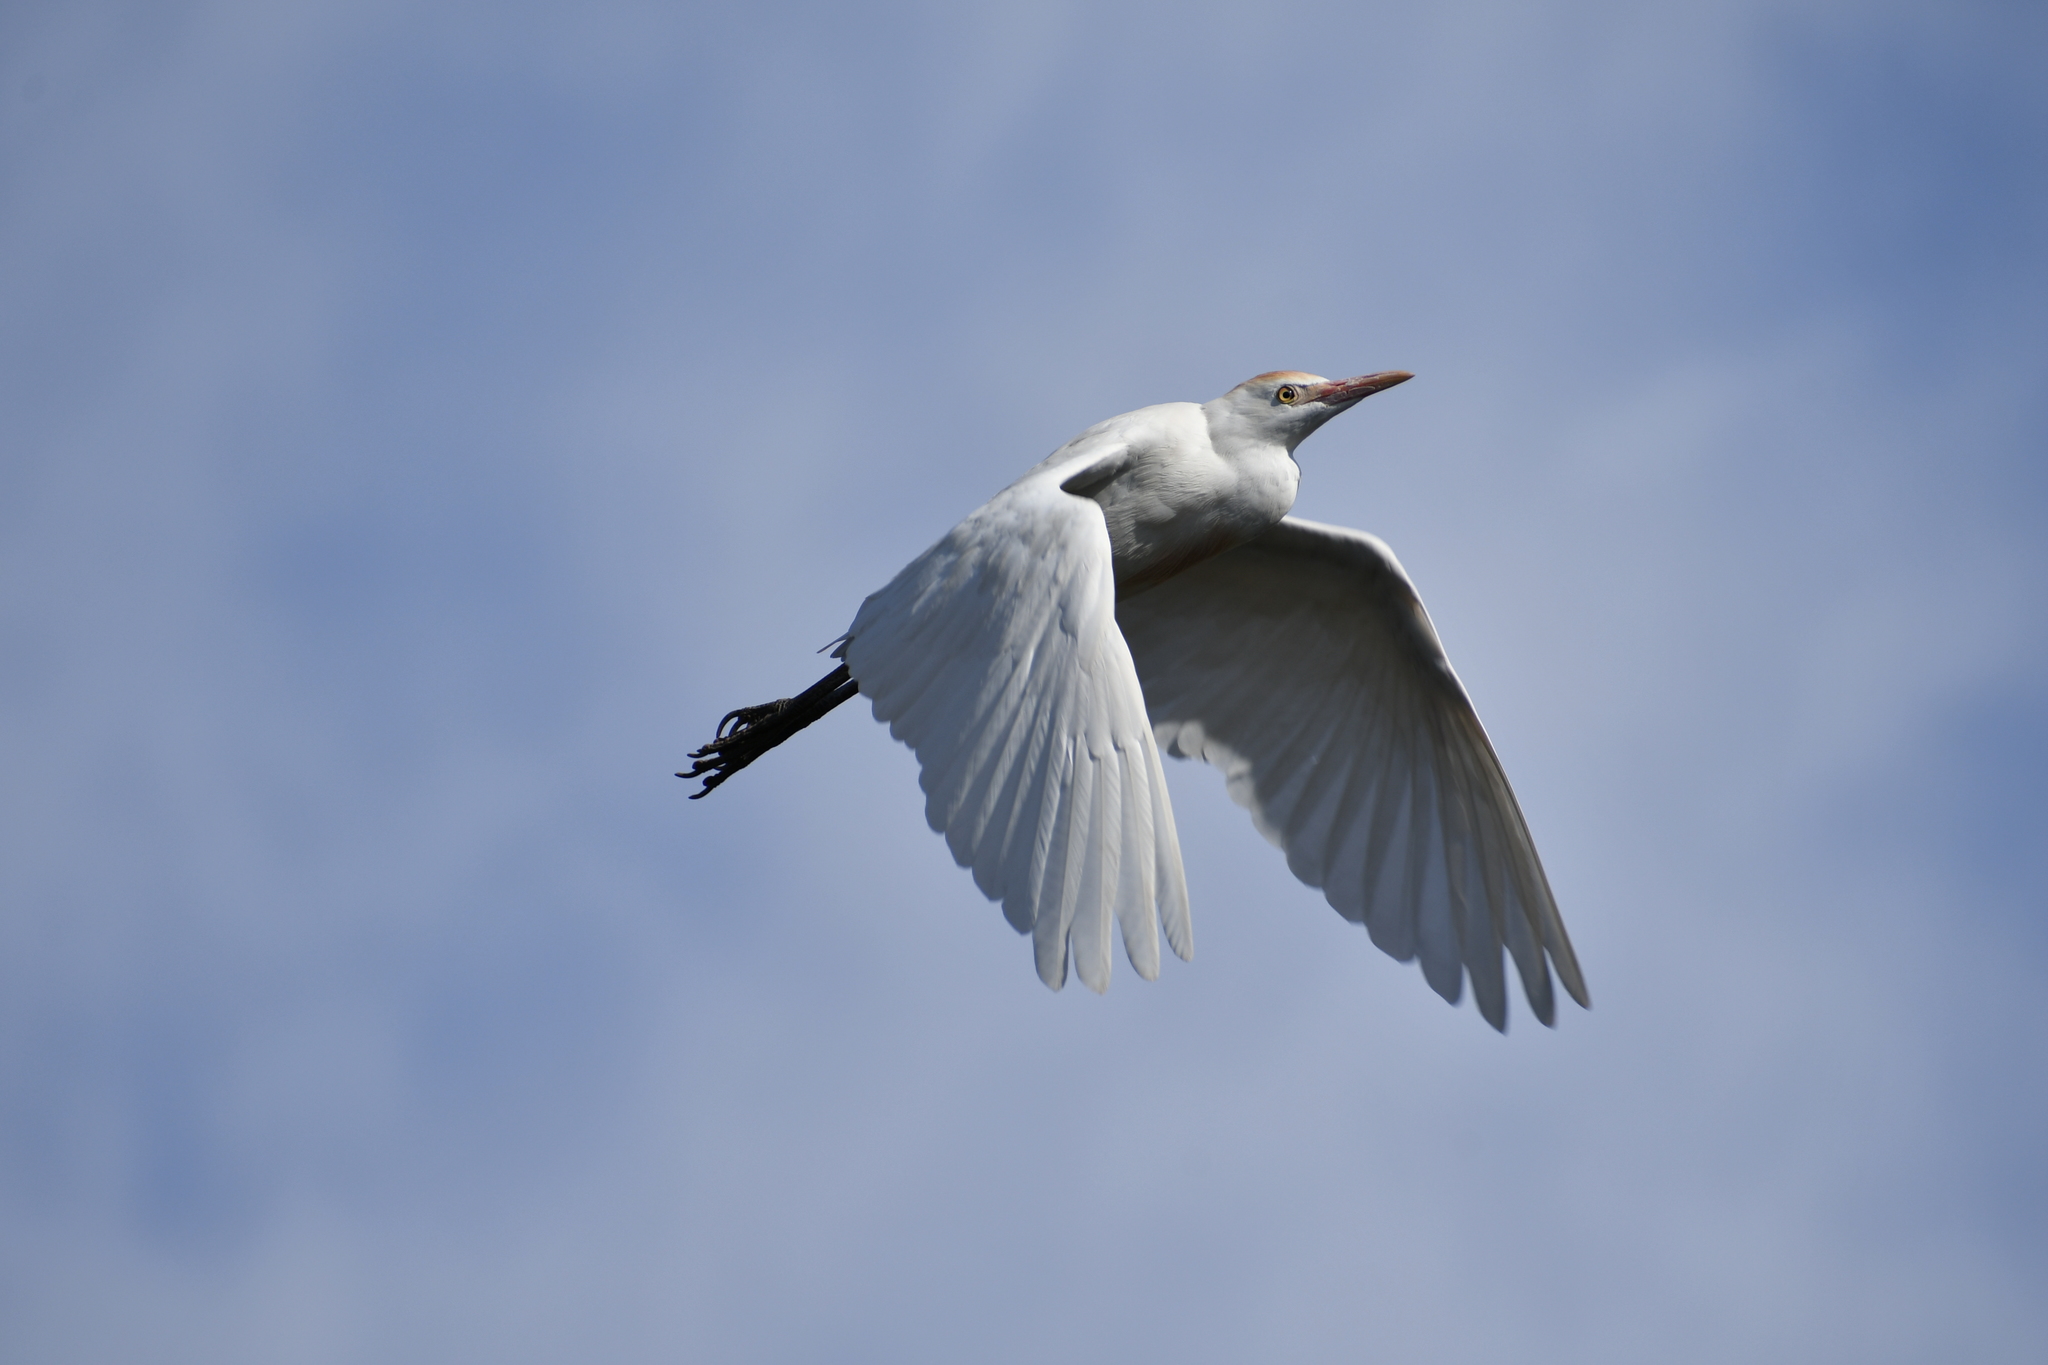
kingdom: Animalia
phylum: Chordata
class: Aves
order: Pelecaniformes
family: Ardeidae
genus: Bubulcus
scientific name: Bubulcus ibis
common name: Cattle egret
